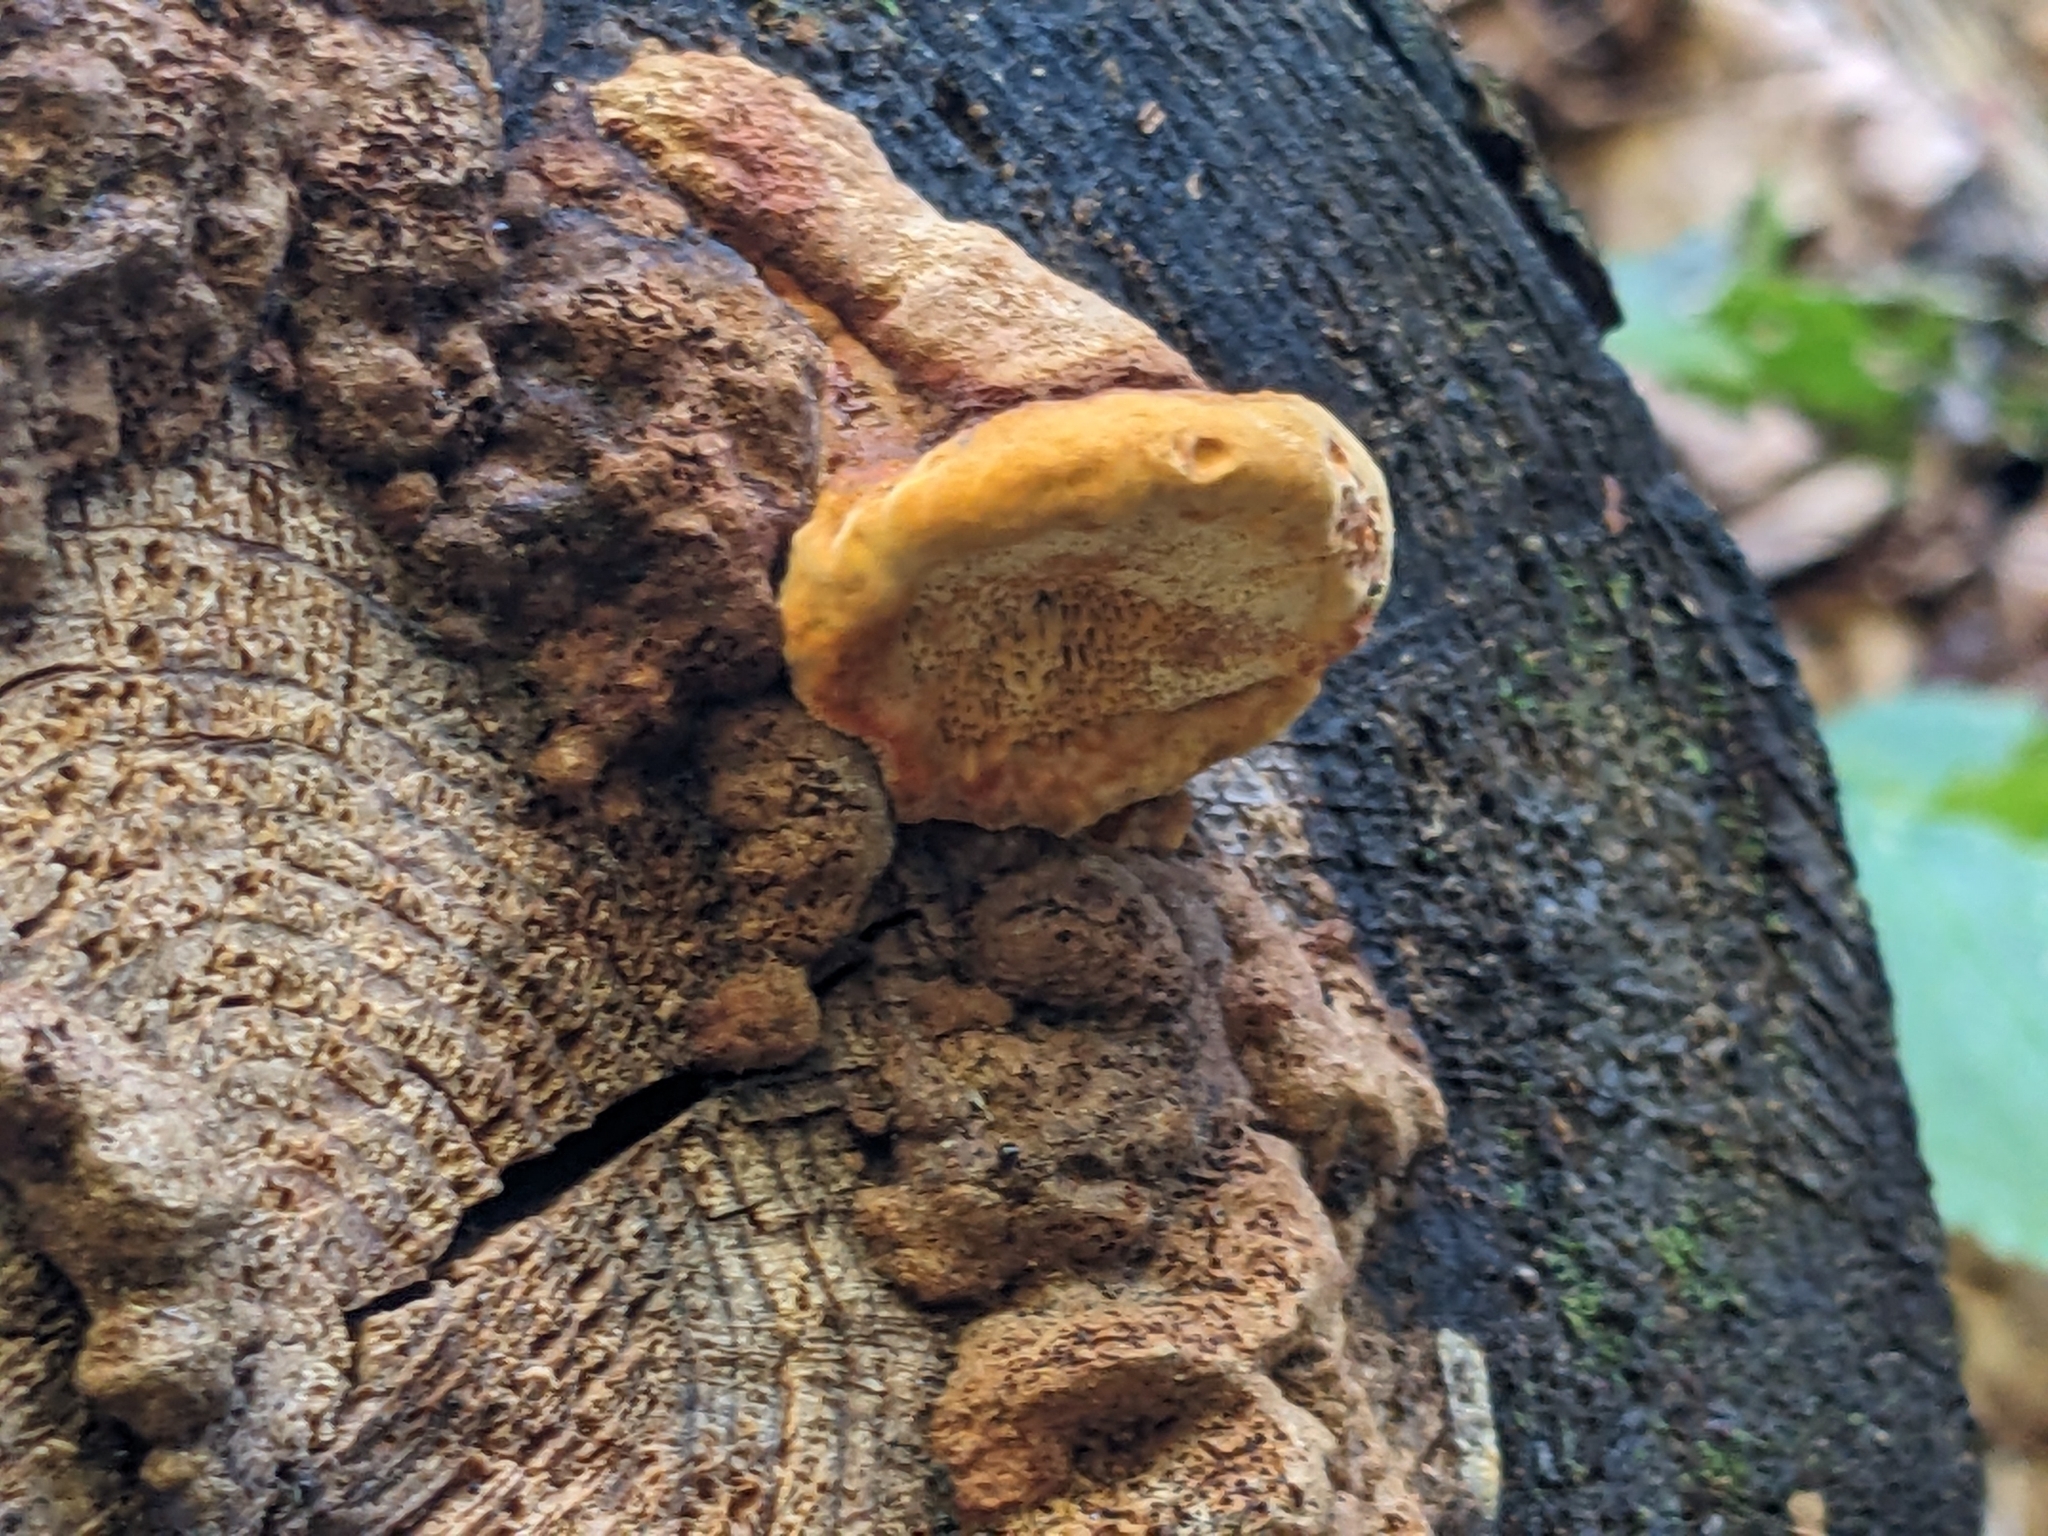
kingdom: Fungi
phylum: Basidiomycota
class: Agaricomycetes
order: Gloeophyllales
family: Gloeophyllaceae
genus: Gloeophyllum
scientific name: Gloeophyllum odoratum
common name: Anise mazegill
